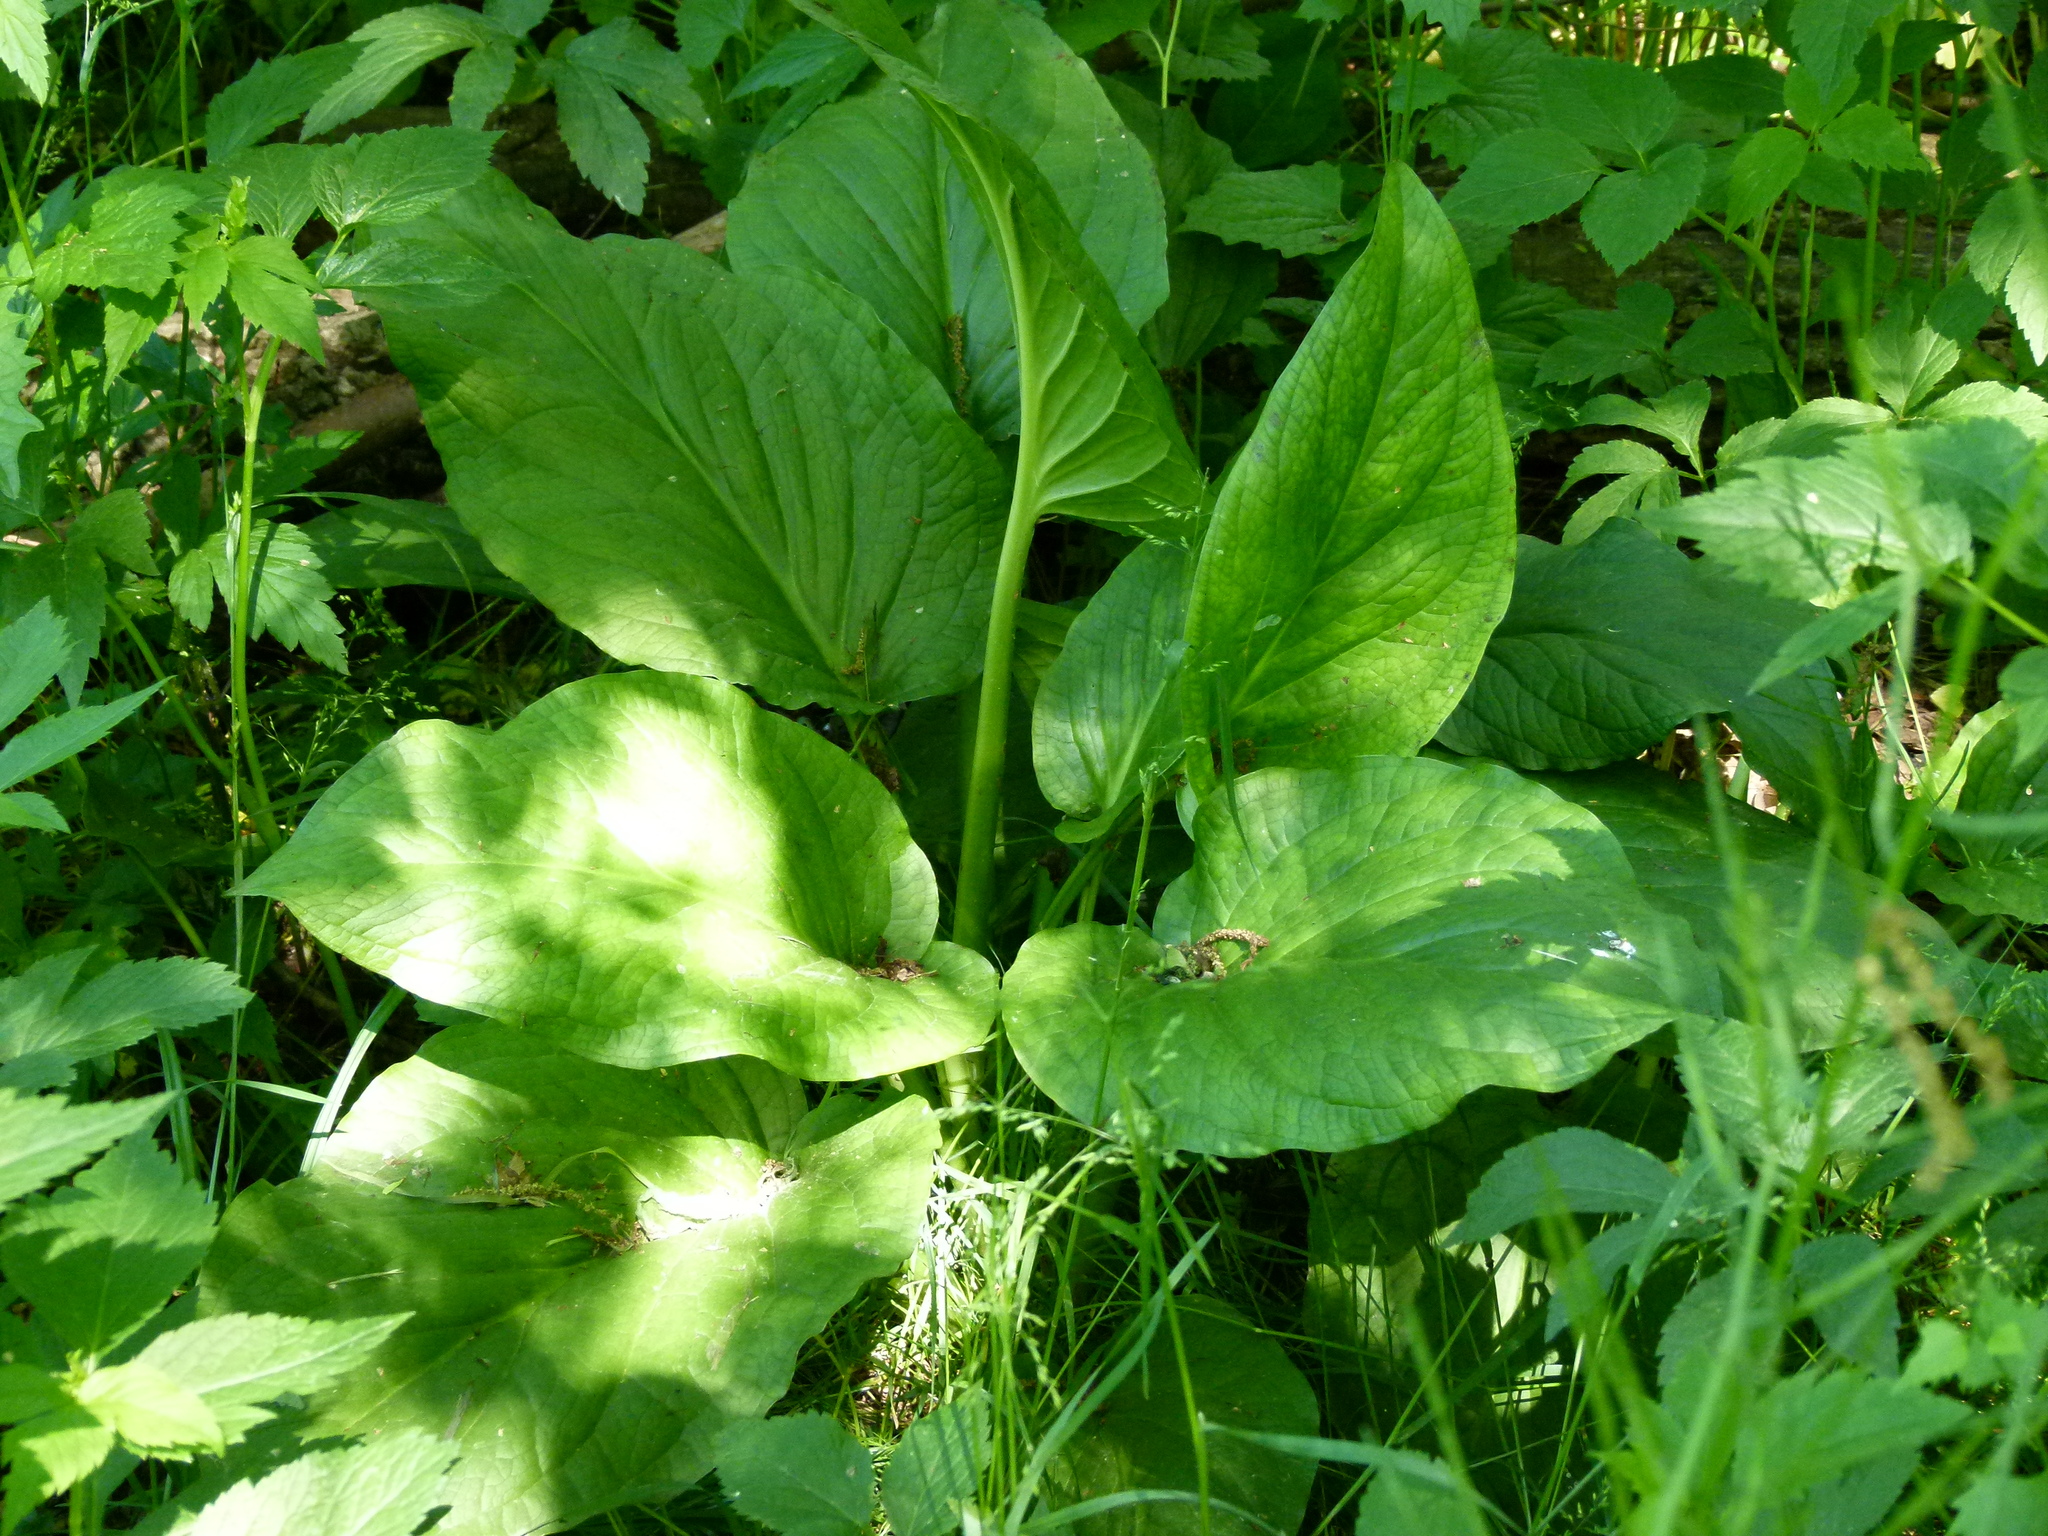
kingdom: Plantae
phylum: Tracheophyta
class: Liliopsida
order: Alismatales
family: Araceae
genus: Symplocarpus
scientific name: Symplocarpus foetidus
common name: Eastern skunk cabbage
